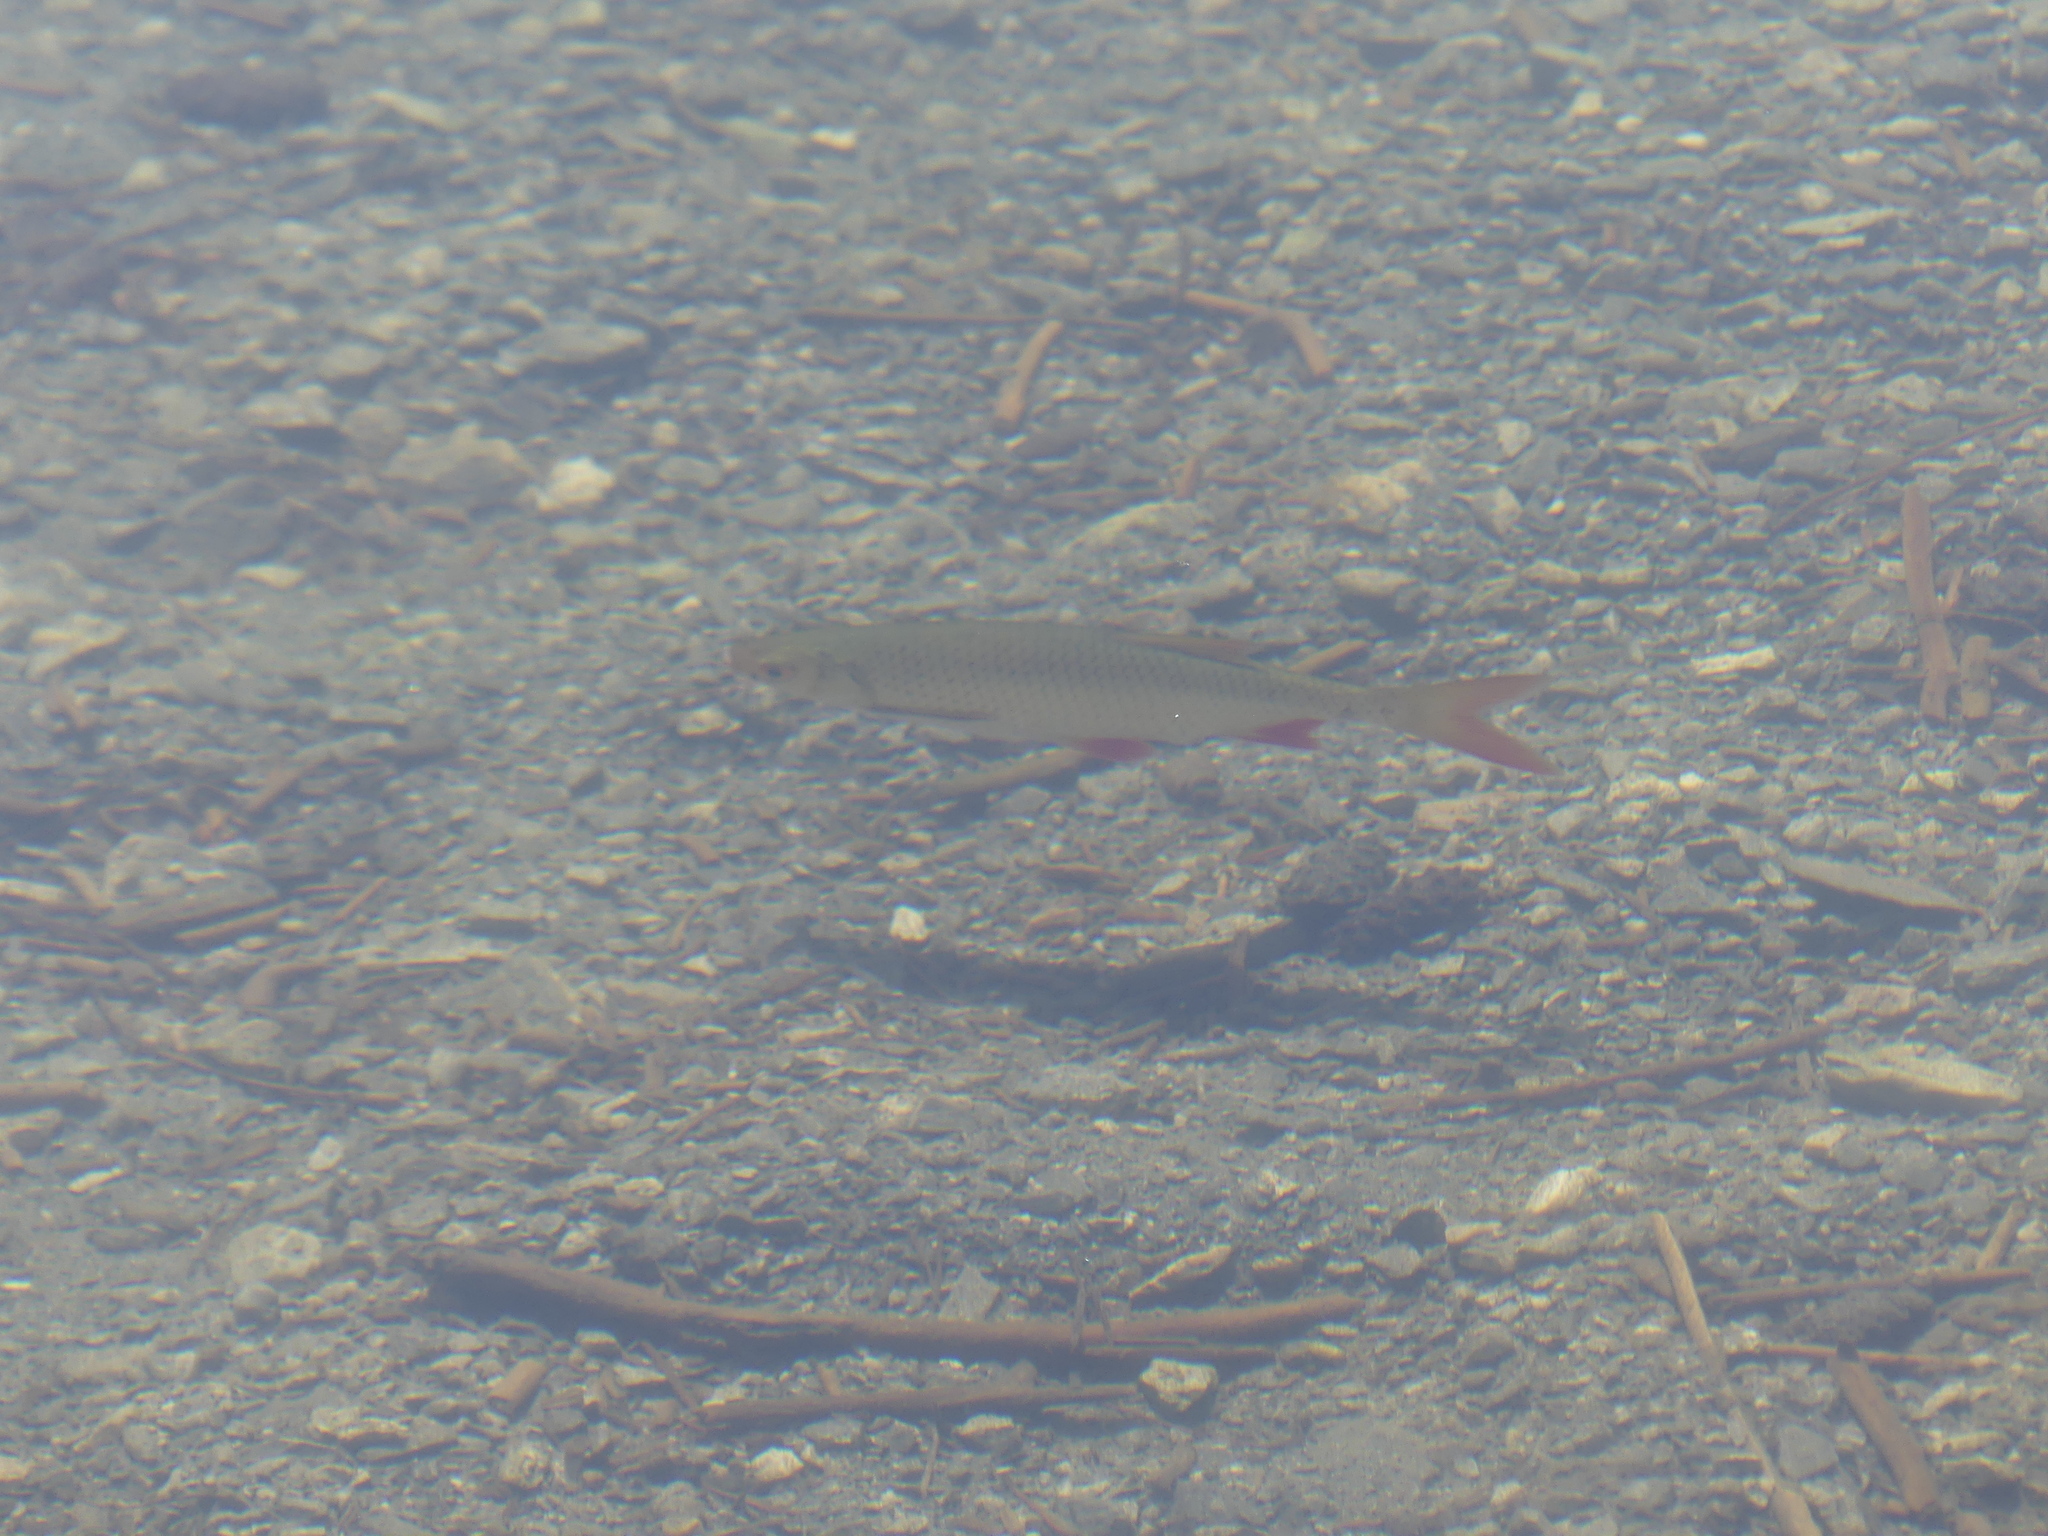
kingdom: Animalia
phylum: Chordata
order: Cypriniformes
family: Cyprinidae
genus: Scardinius
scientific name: Scardinius erythrophthalmus
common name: Rudd
